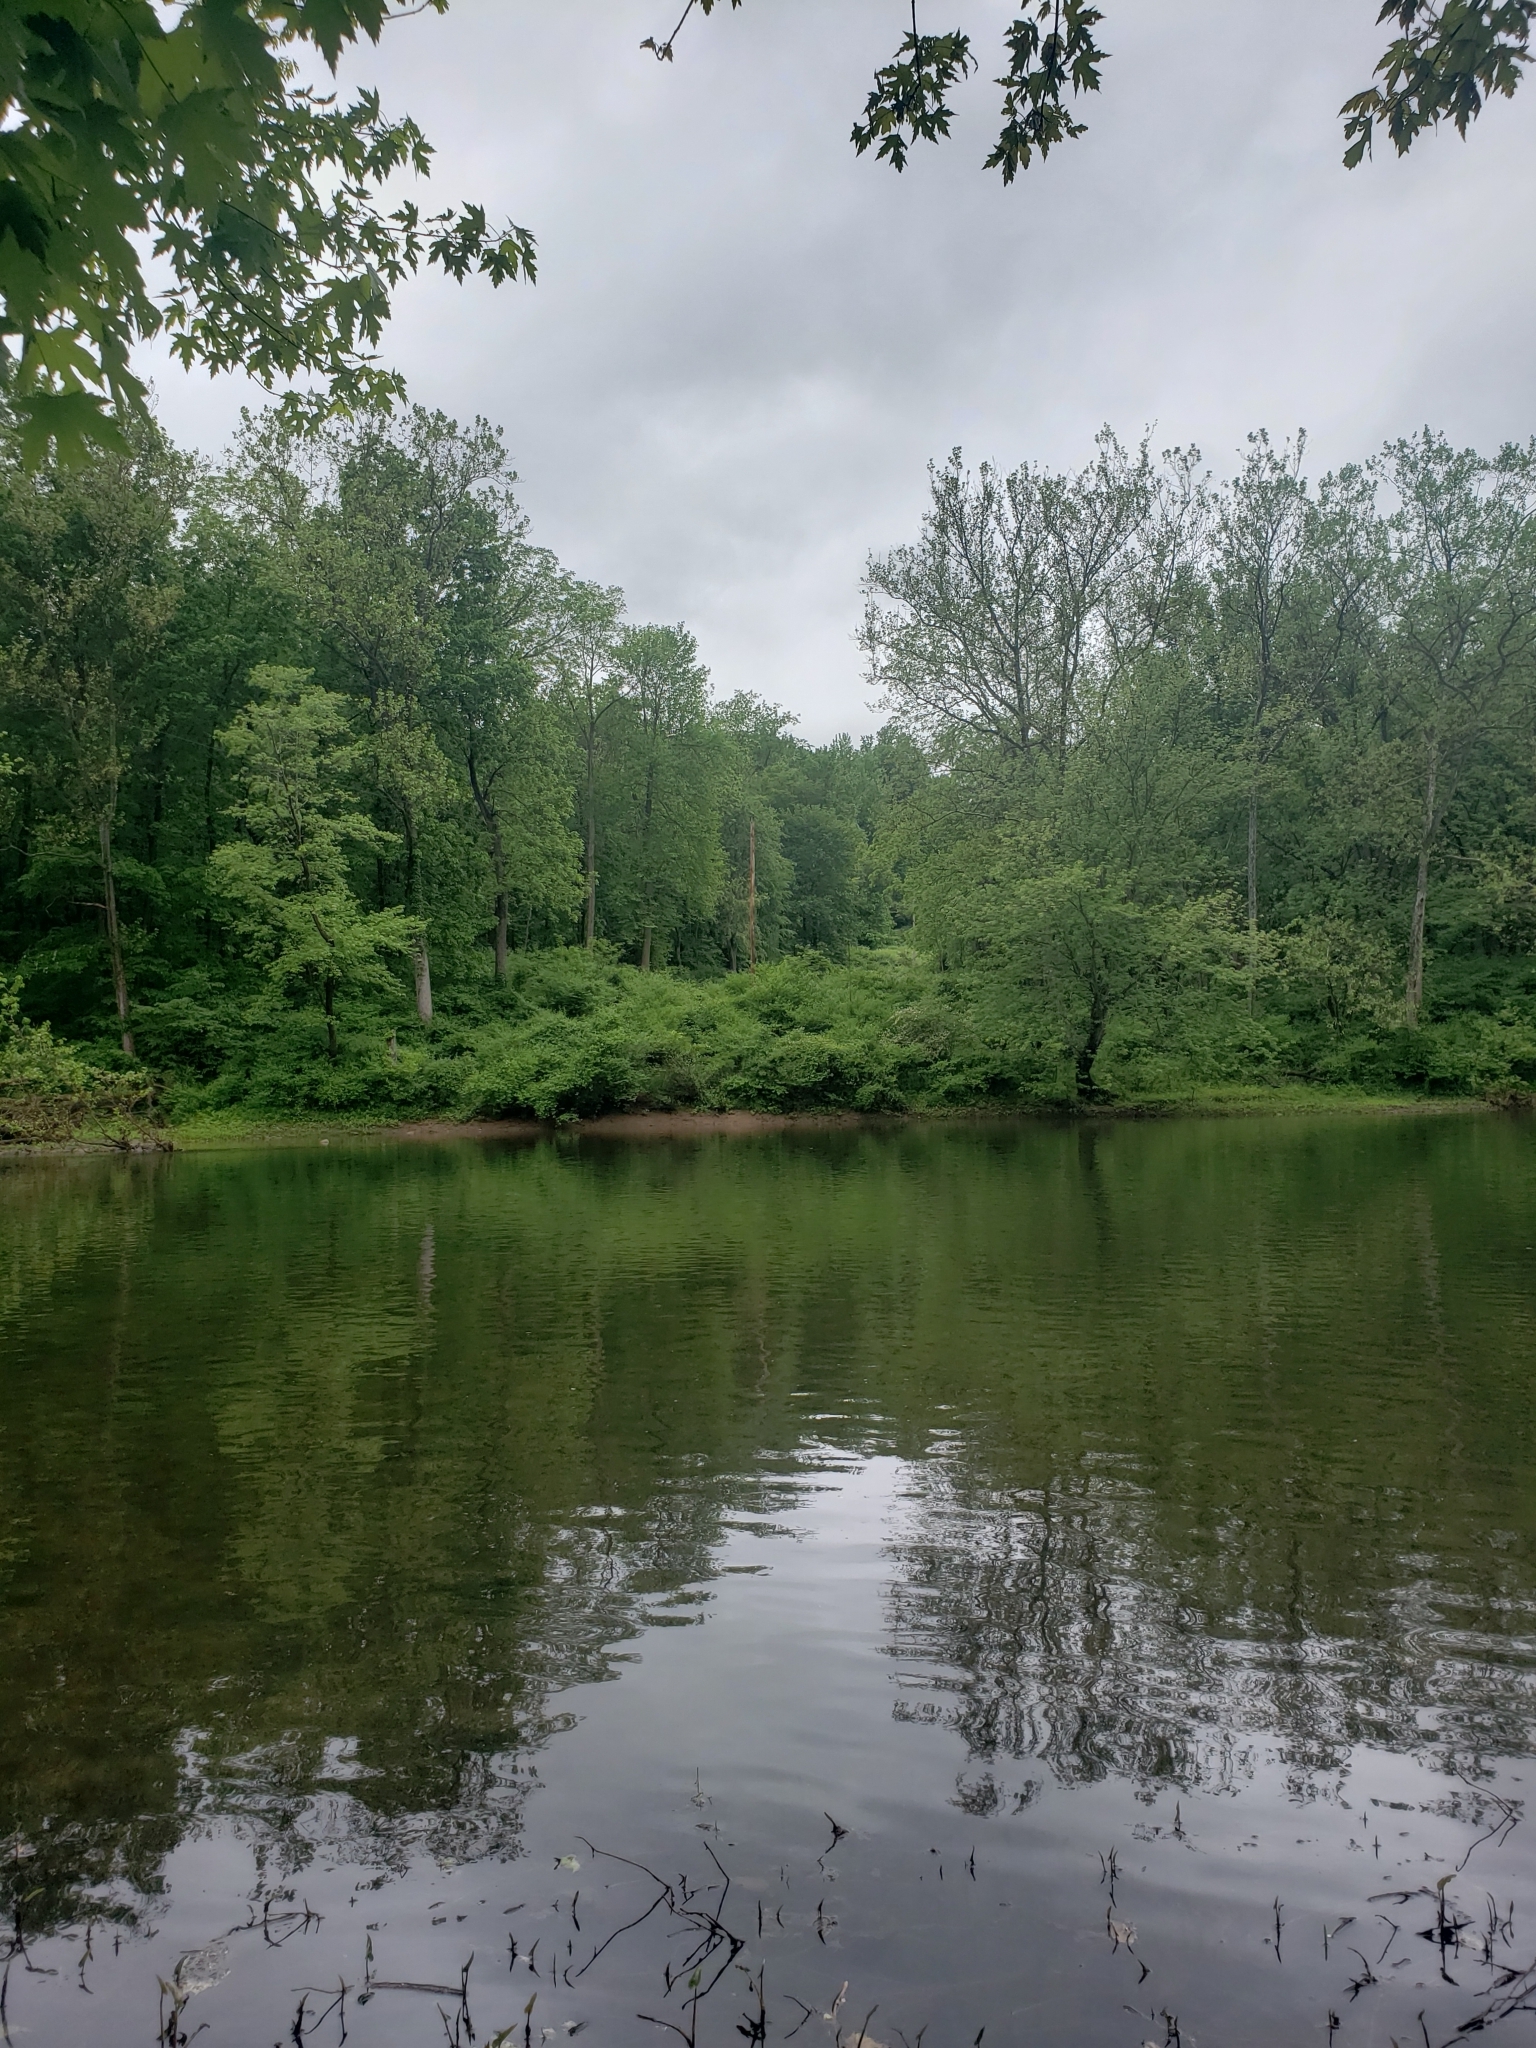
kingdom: Animalia
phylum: Chordata
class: Aves
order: Passeriformes
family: Polioptilidae
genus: Polioptila
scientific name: Polioptila caerulea
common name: Blue-gray gnatcatcher
